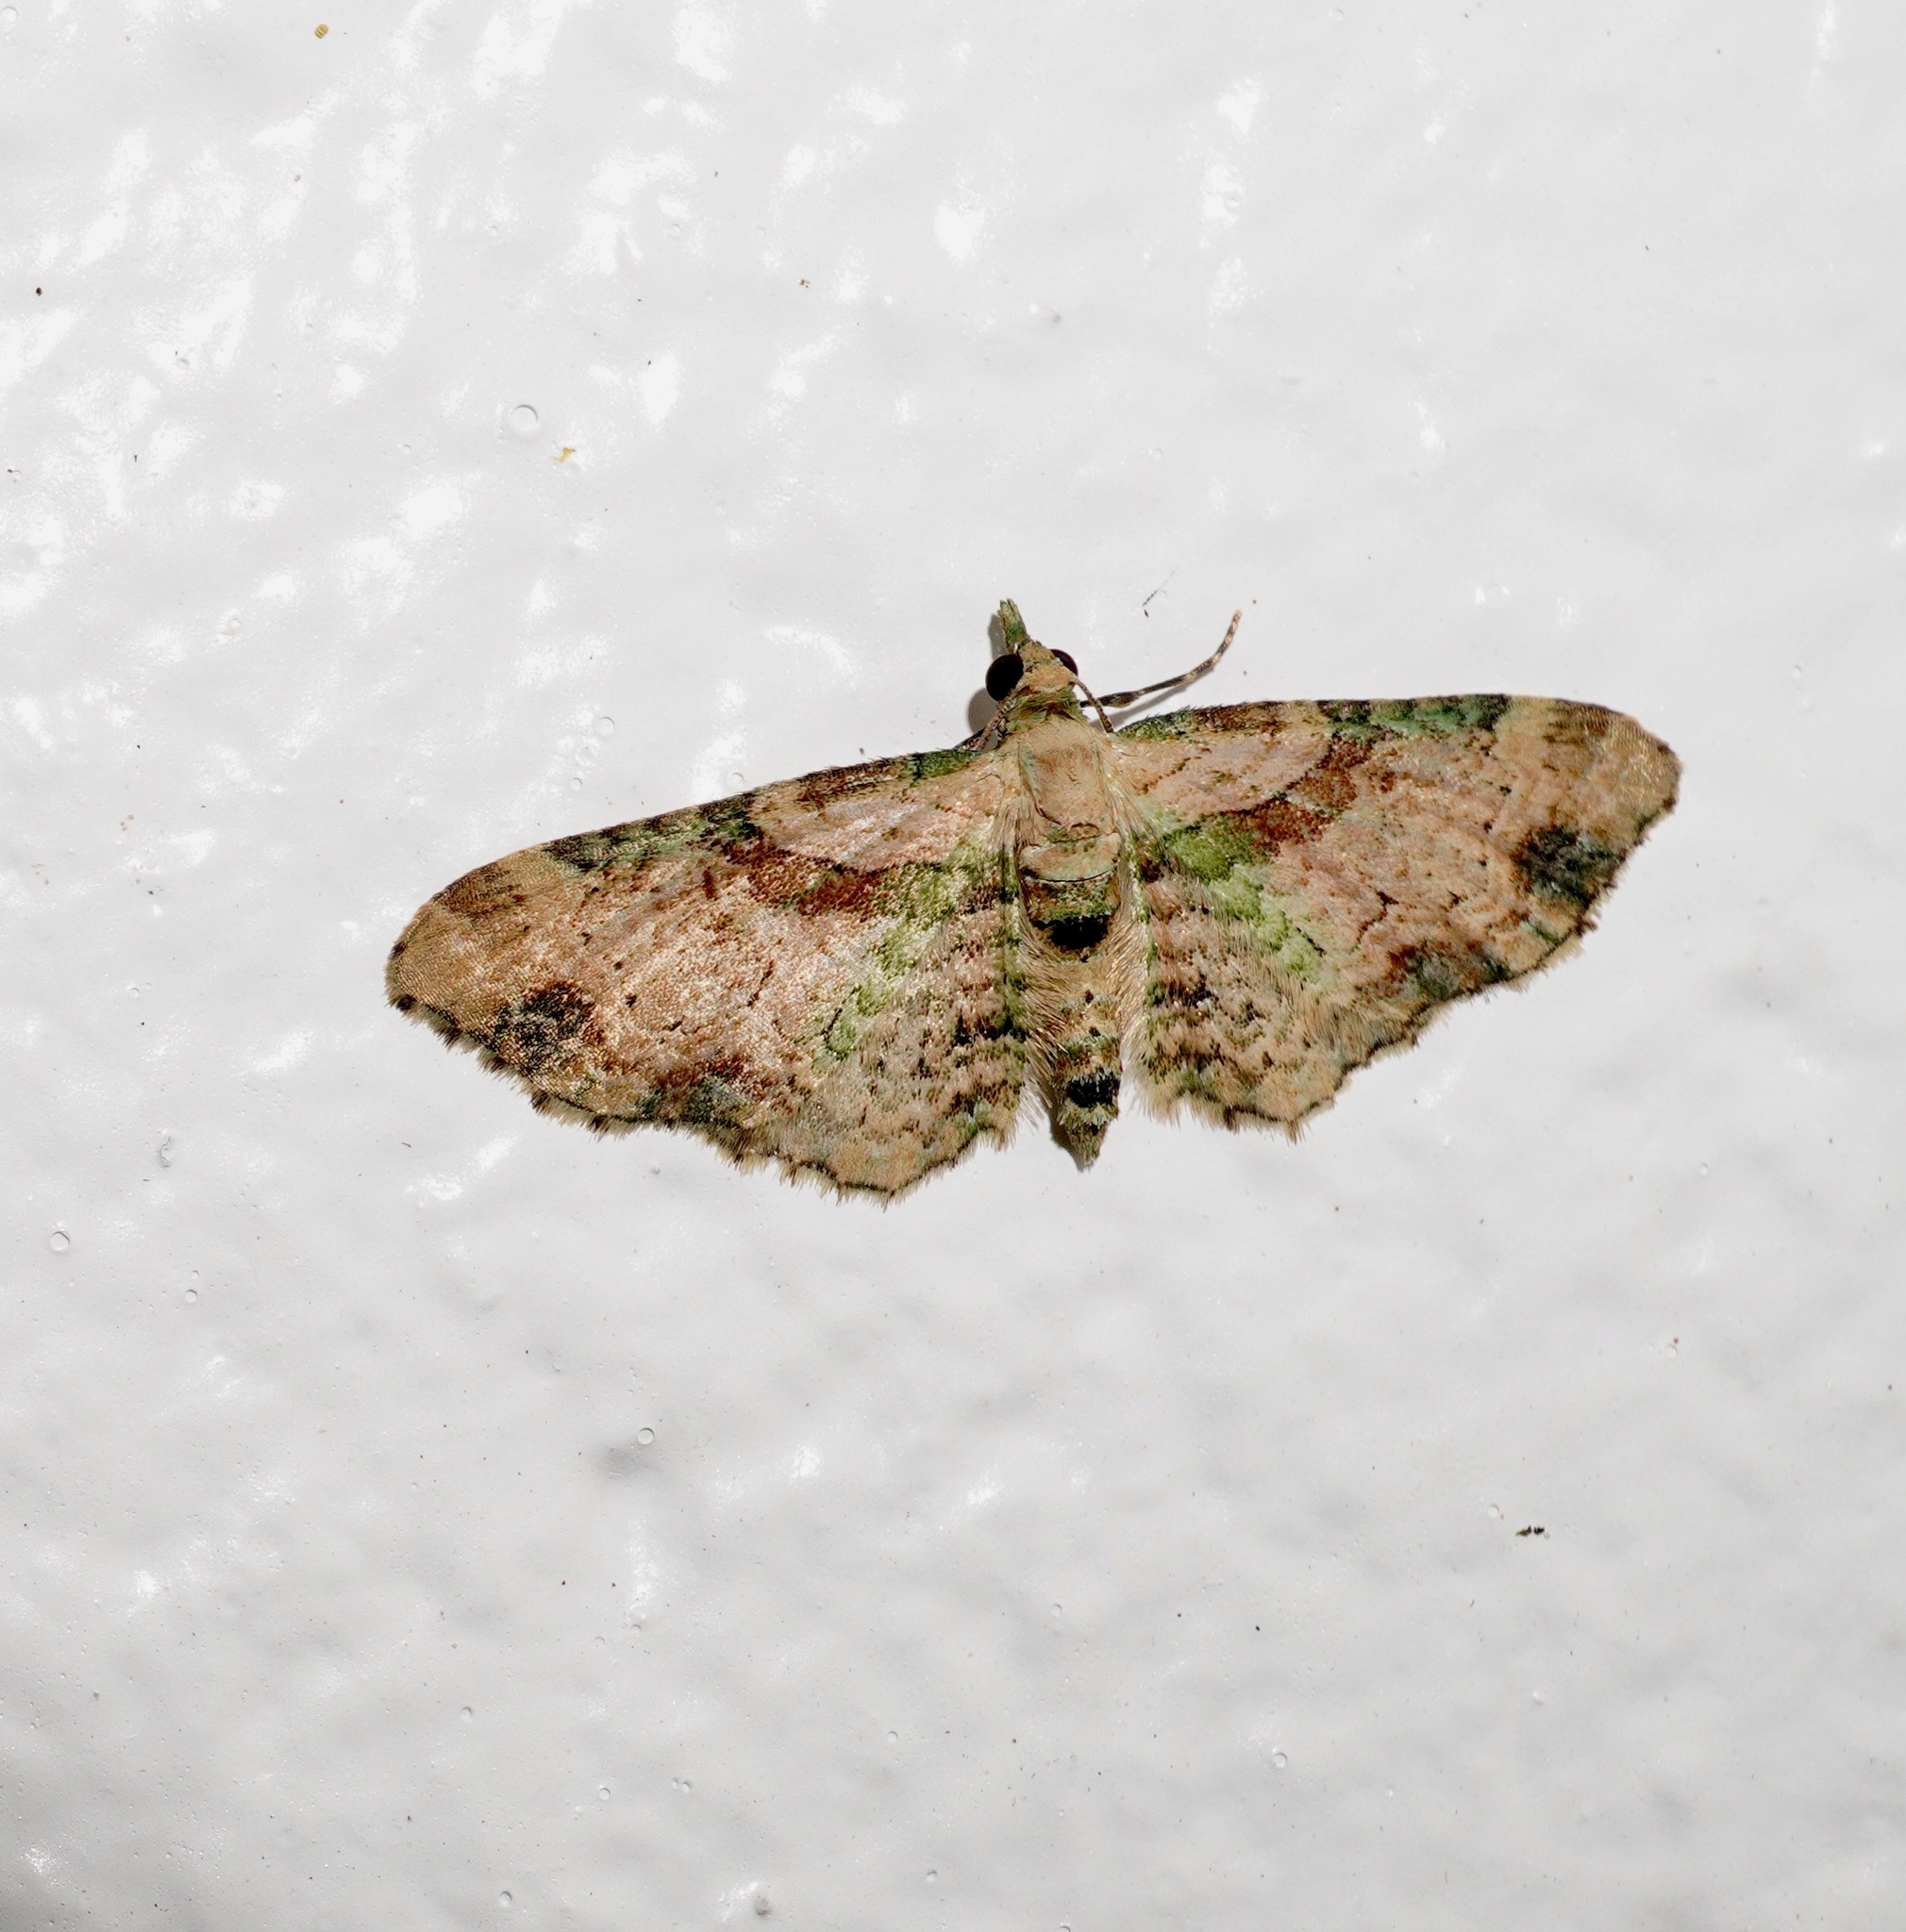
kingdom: Animalia
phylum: Arthropoda
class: Insecta
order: Lepidoptera
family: Geometridae
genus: Chloroclystis
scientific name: Chloroclystis
